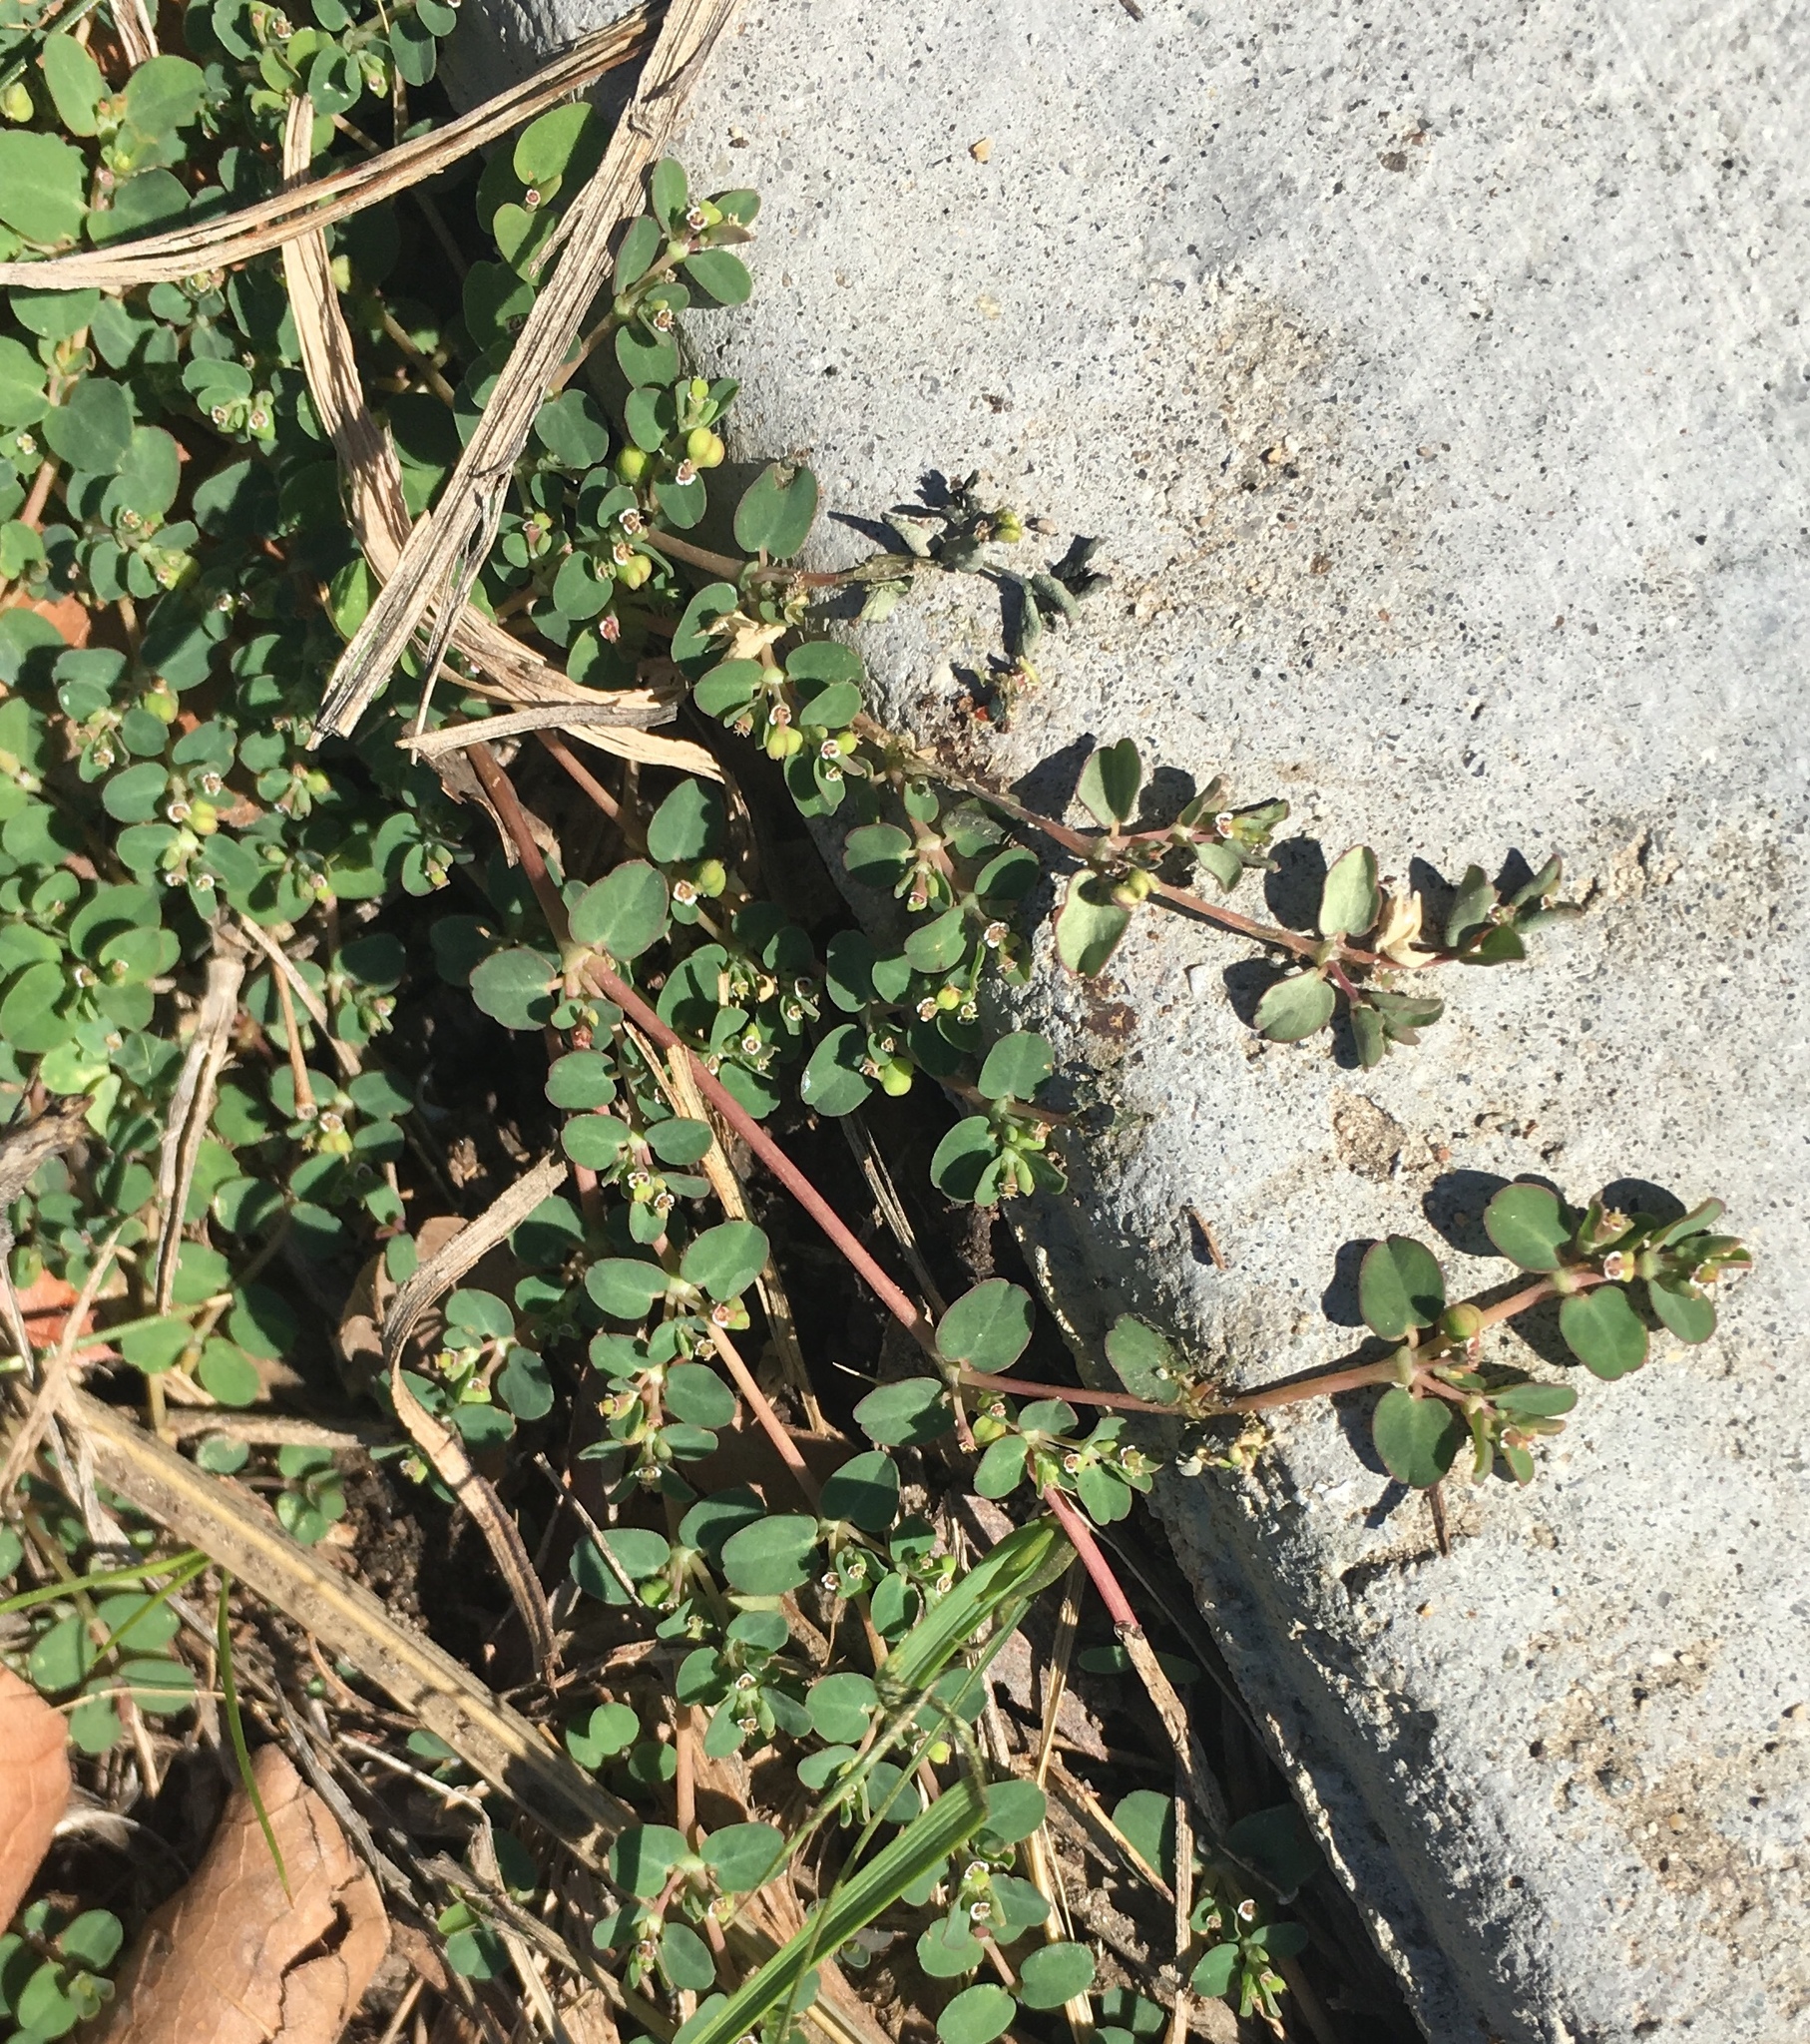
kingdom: Plantae
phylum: Tracheophyta
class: Magnoliopsida
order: Malpighiales
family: Euphorbiaceae
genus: Euphorbia
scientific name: Euphorbia serpens
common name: Matted sandmat
